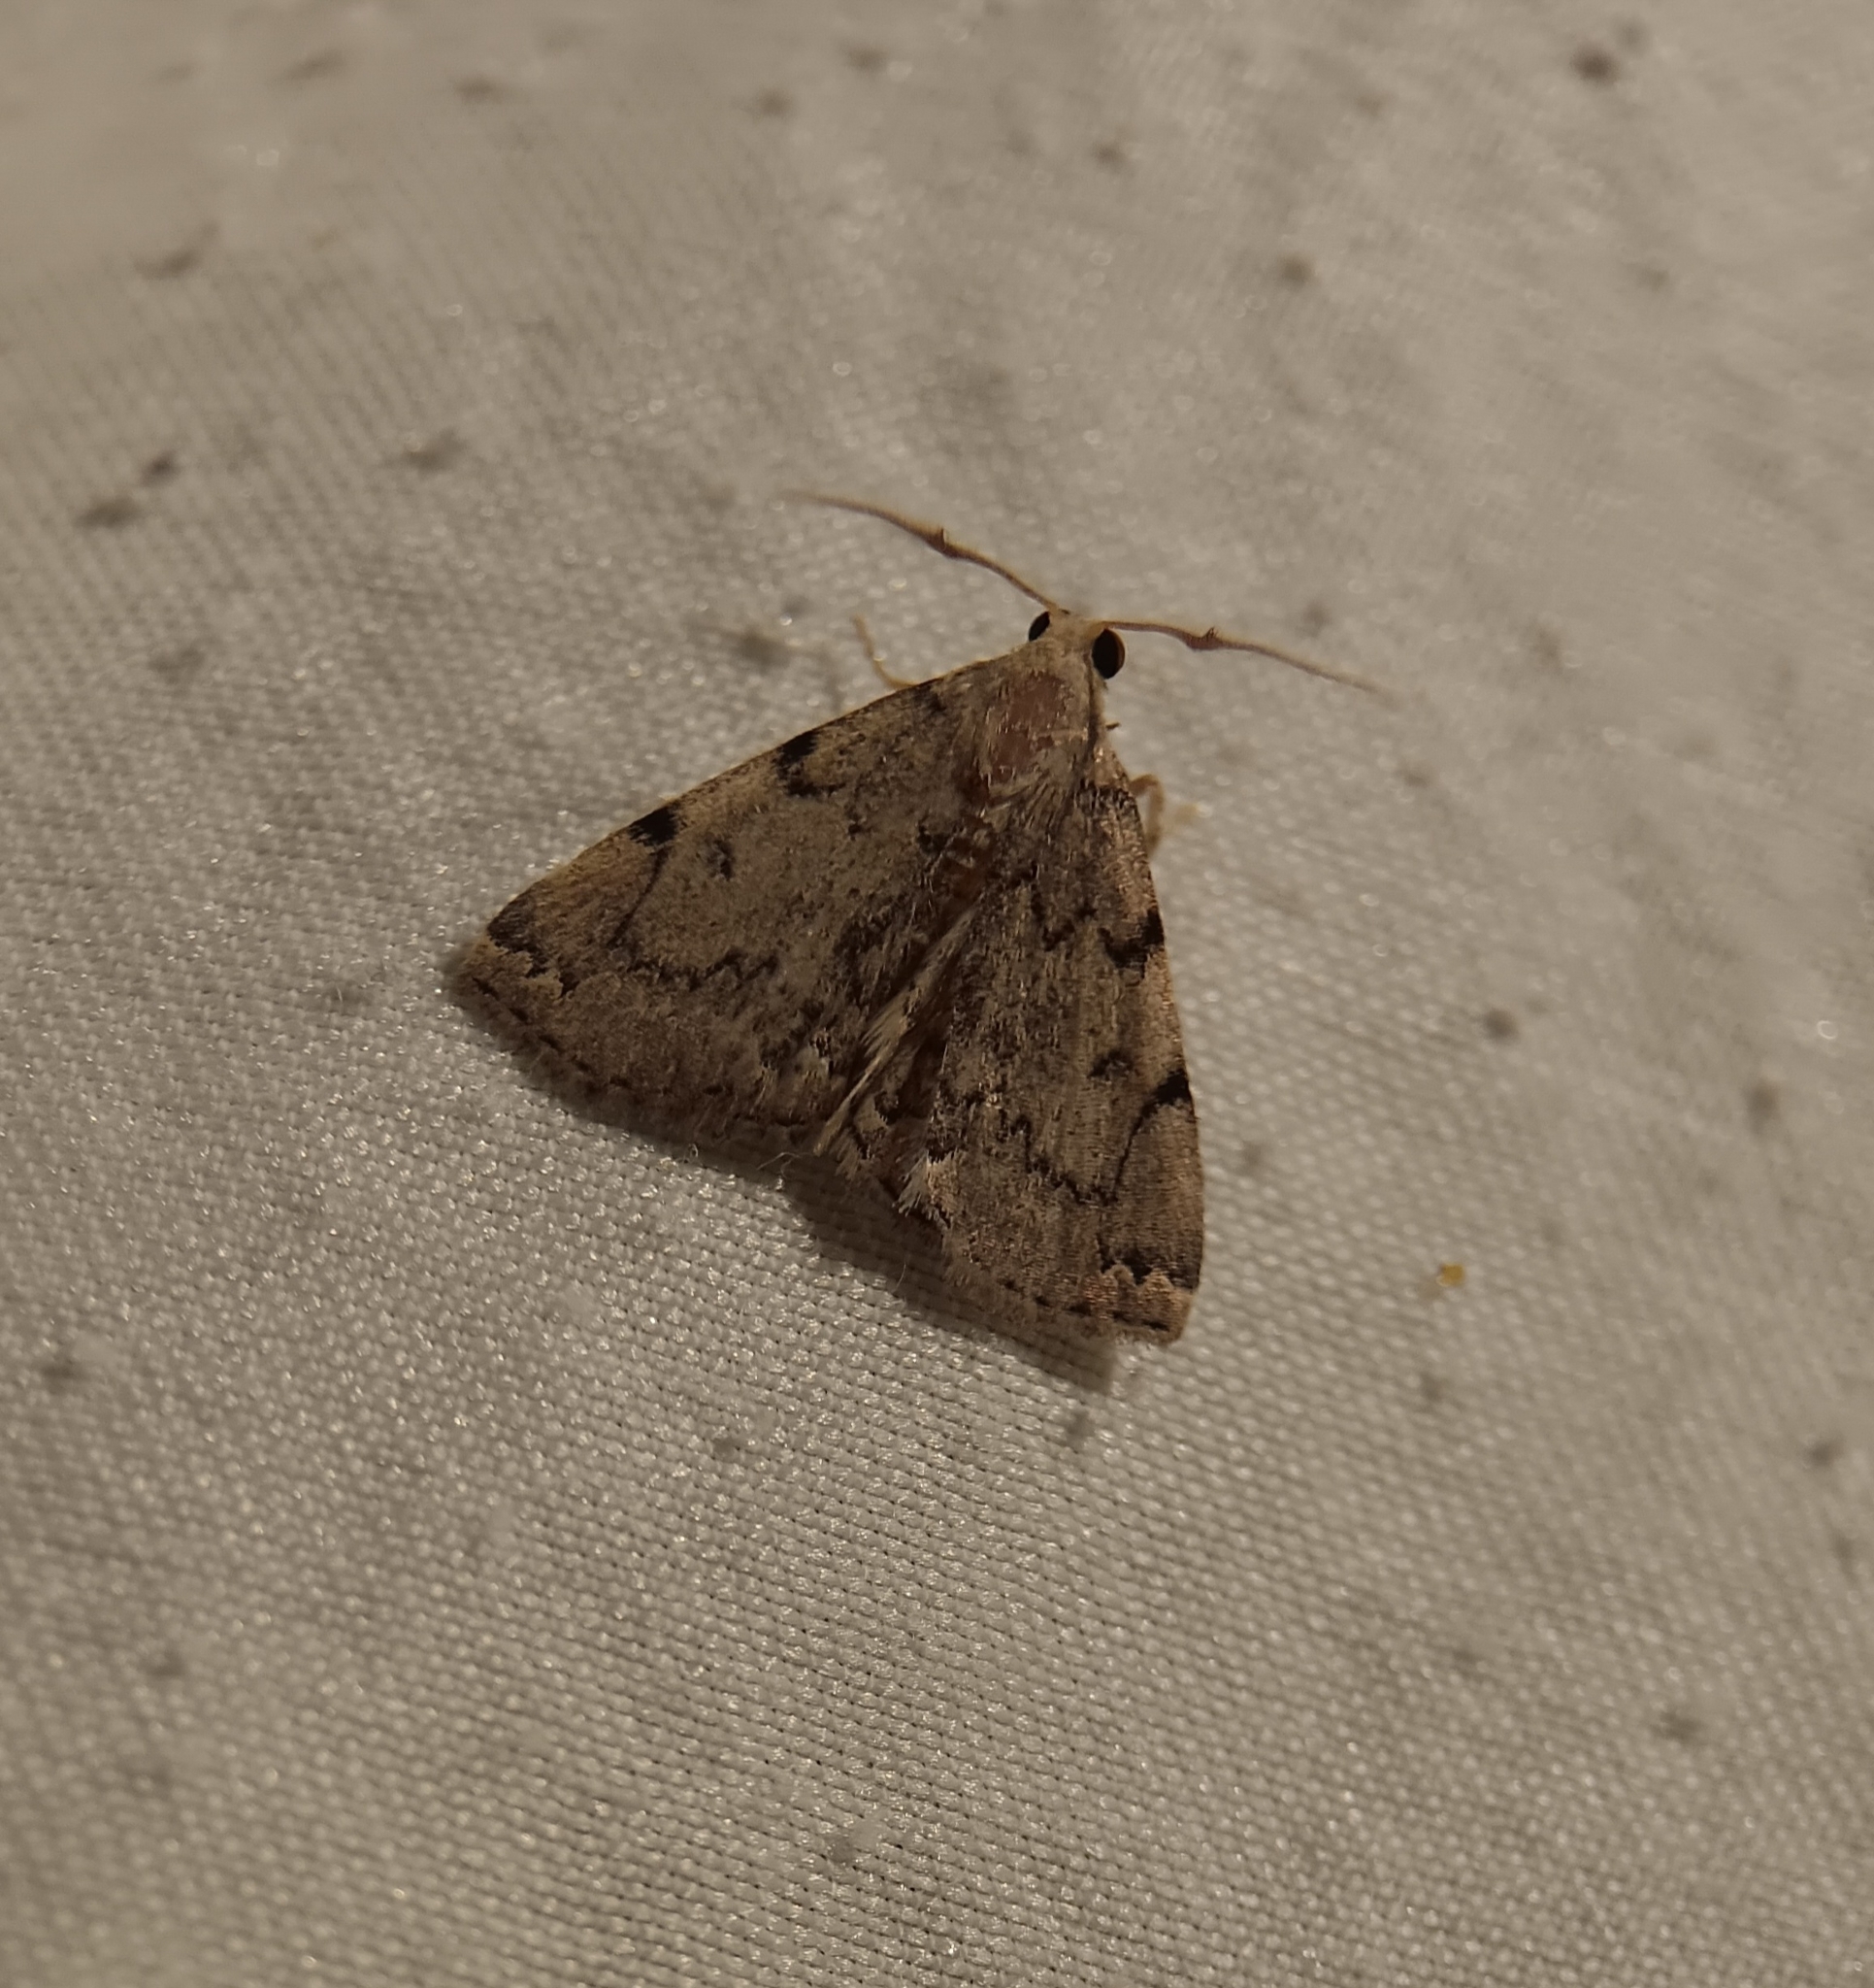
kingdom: Animalia
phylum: Arthropoda
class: Insecta
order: Lepidoptera
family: Erebidae
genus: Zanclognatha
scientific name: Zanclognatha theralis
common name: Flagged fan-foot
